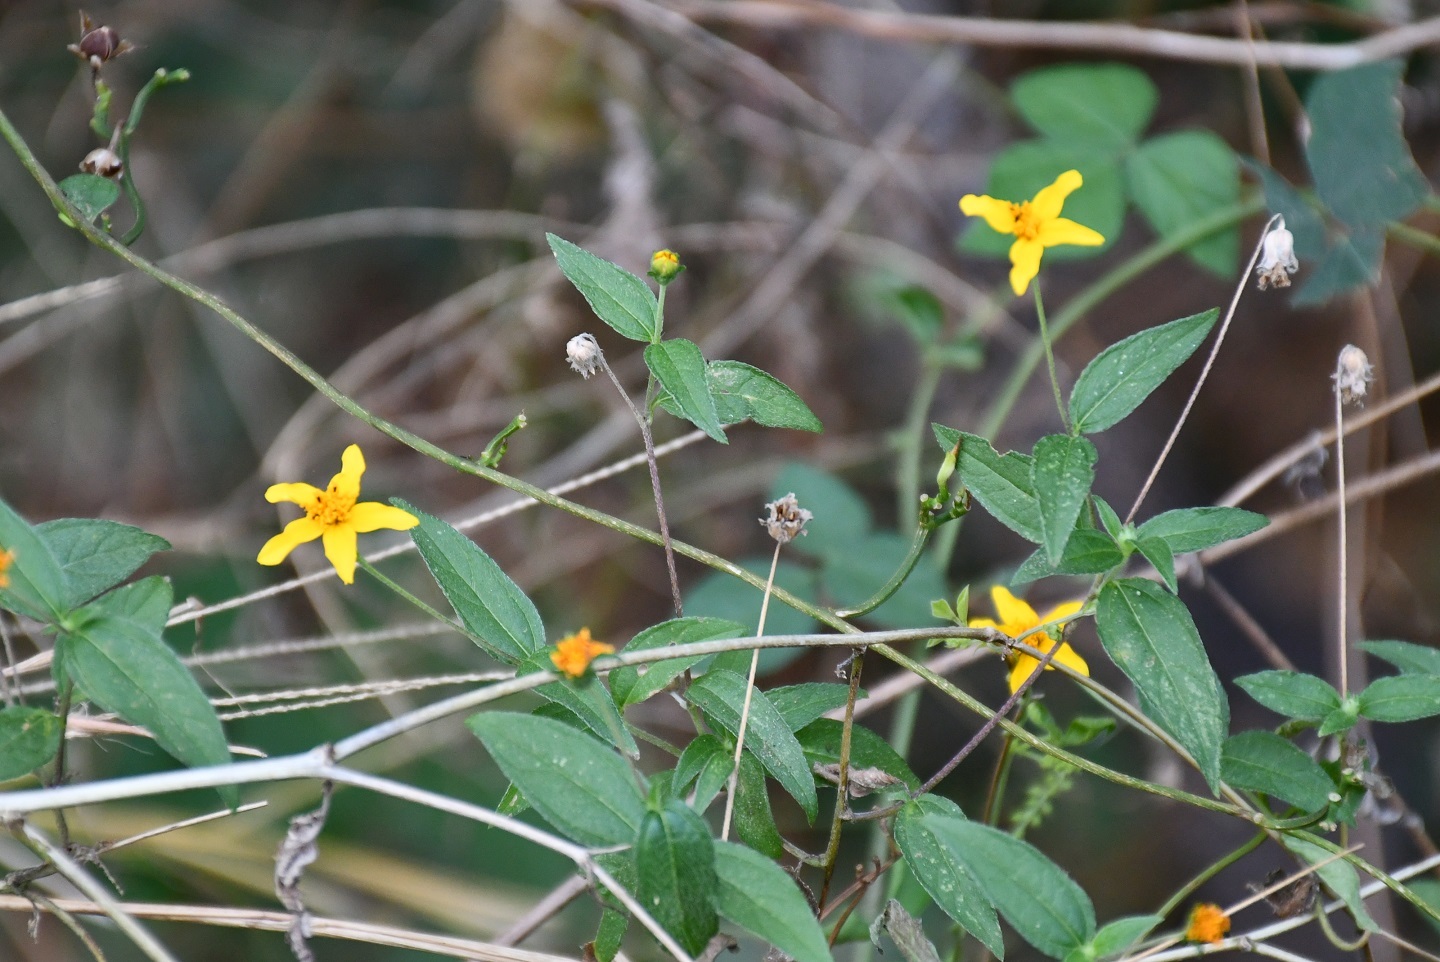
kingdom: Plantae
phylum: Tracheophyta
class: Magnoliopsida
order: Asterales
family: Asteraceae
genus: Perymenium
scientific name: Perymenium klattianum
